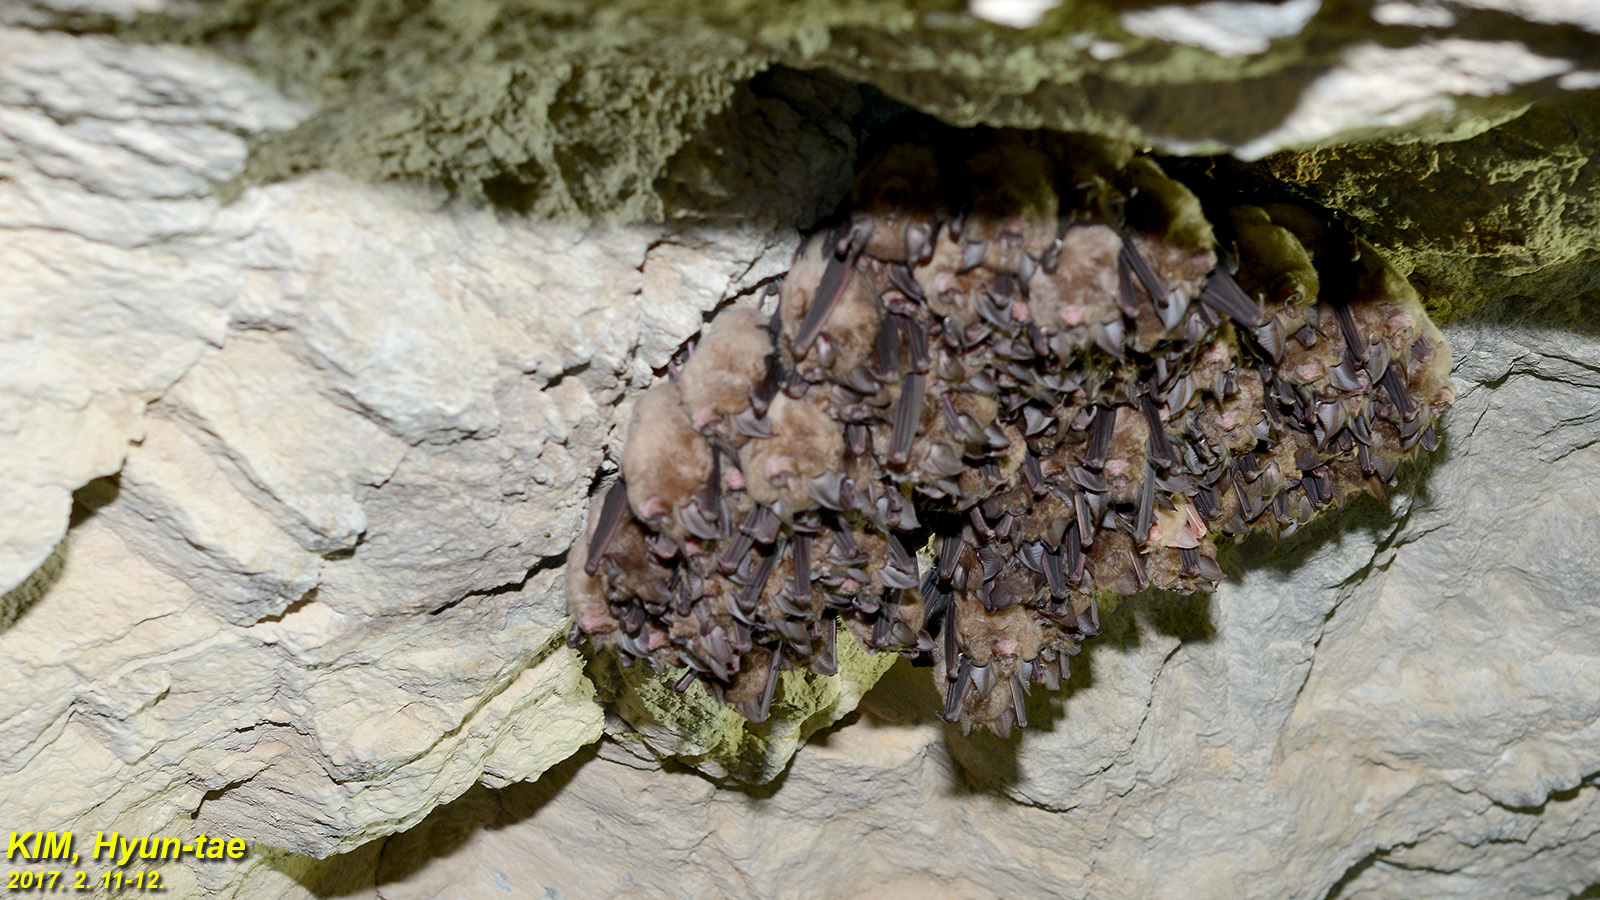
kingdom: Animalia
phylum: Chordata
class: Mammalia
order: Chiroptera
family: Rhinolophidae
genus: Rhinolophus
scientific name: Rhinolophus ferrumequinum
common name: Greater horseshoe bat
